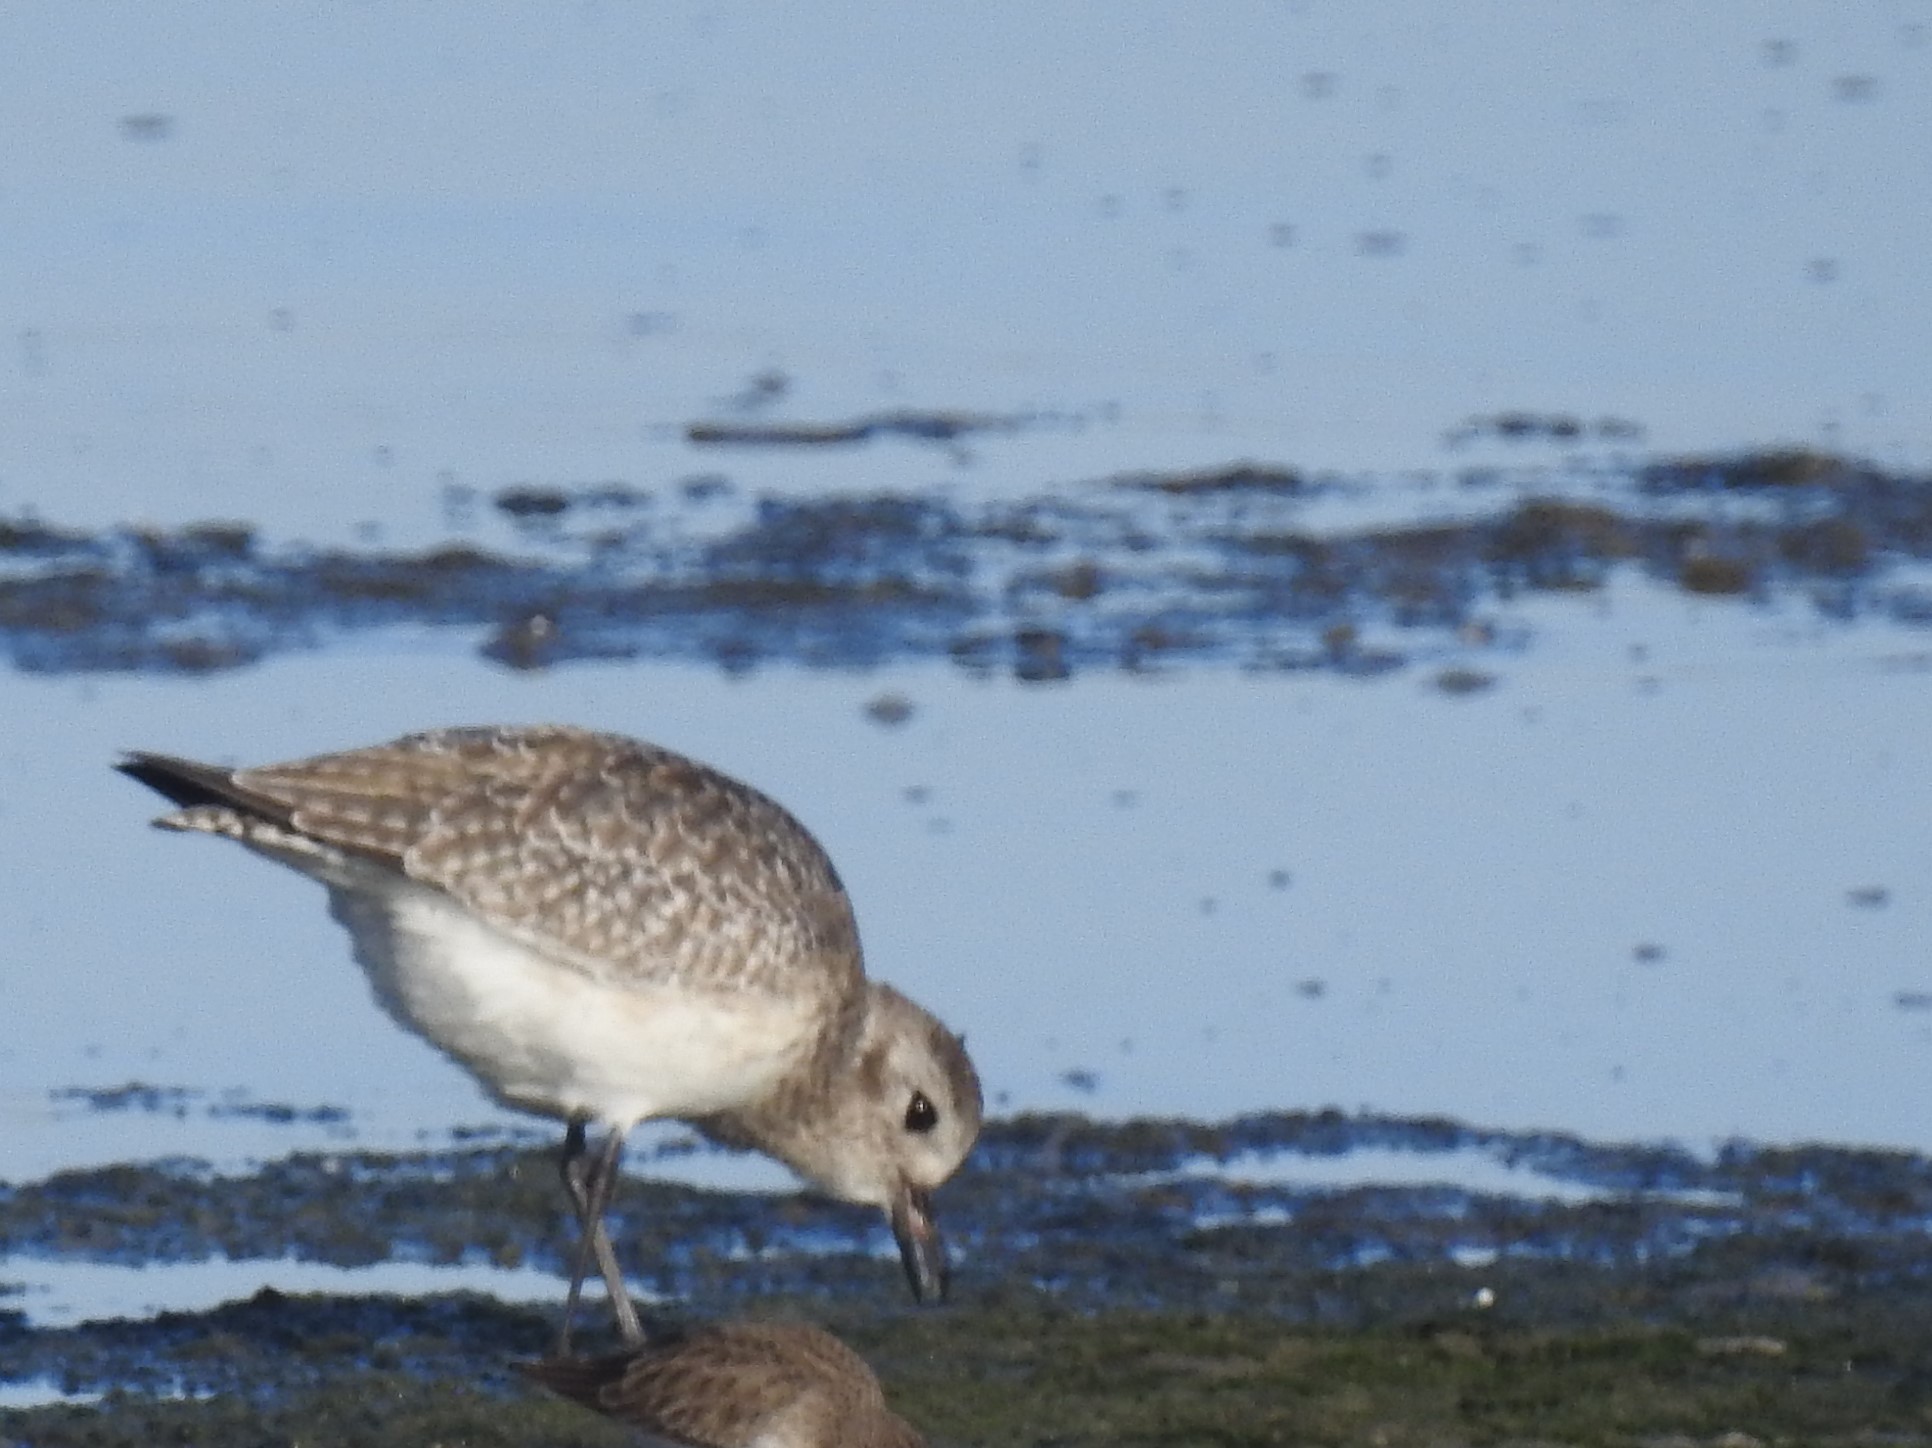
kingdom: Animalia
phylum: Chordata
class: Aves
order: Charadriiformes
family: Charadriidae
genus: Pluvialis
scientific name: Pluvialis squatarola
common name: Grey plover
